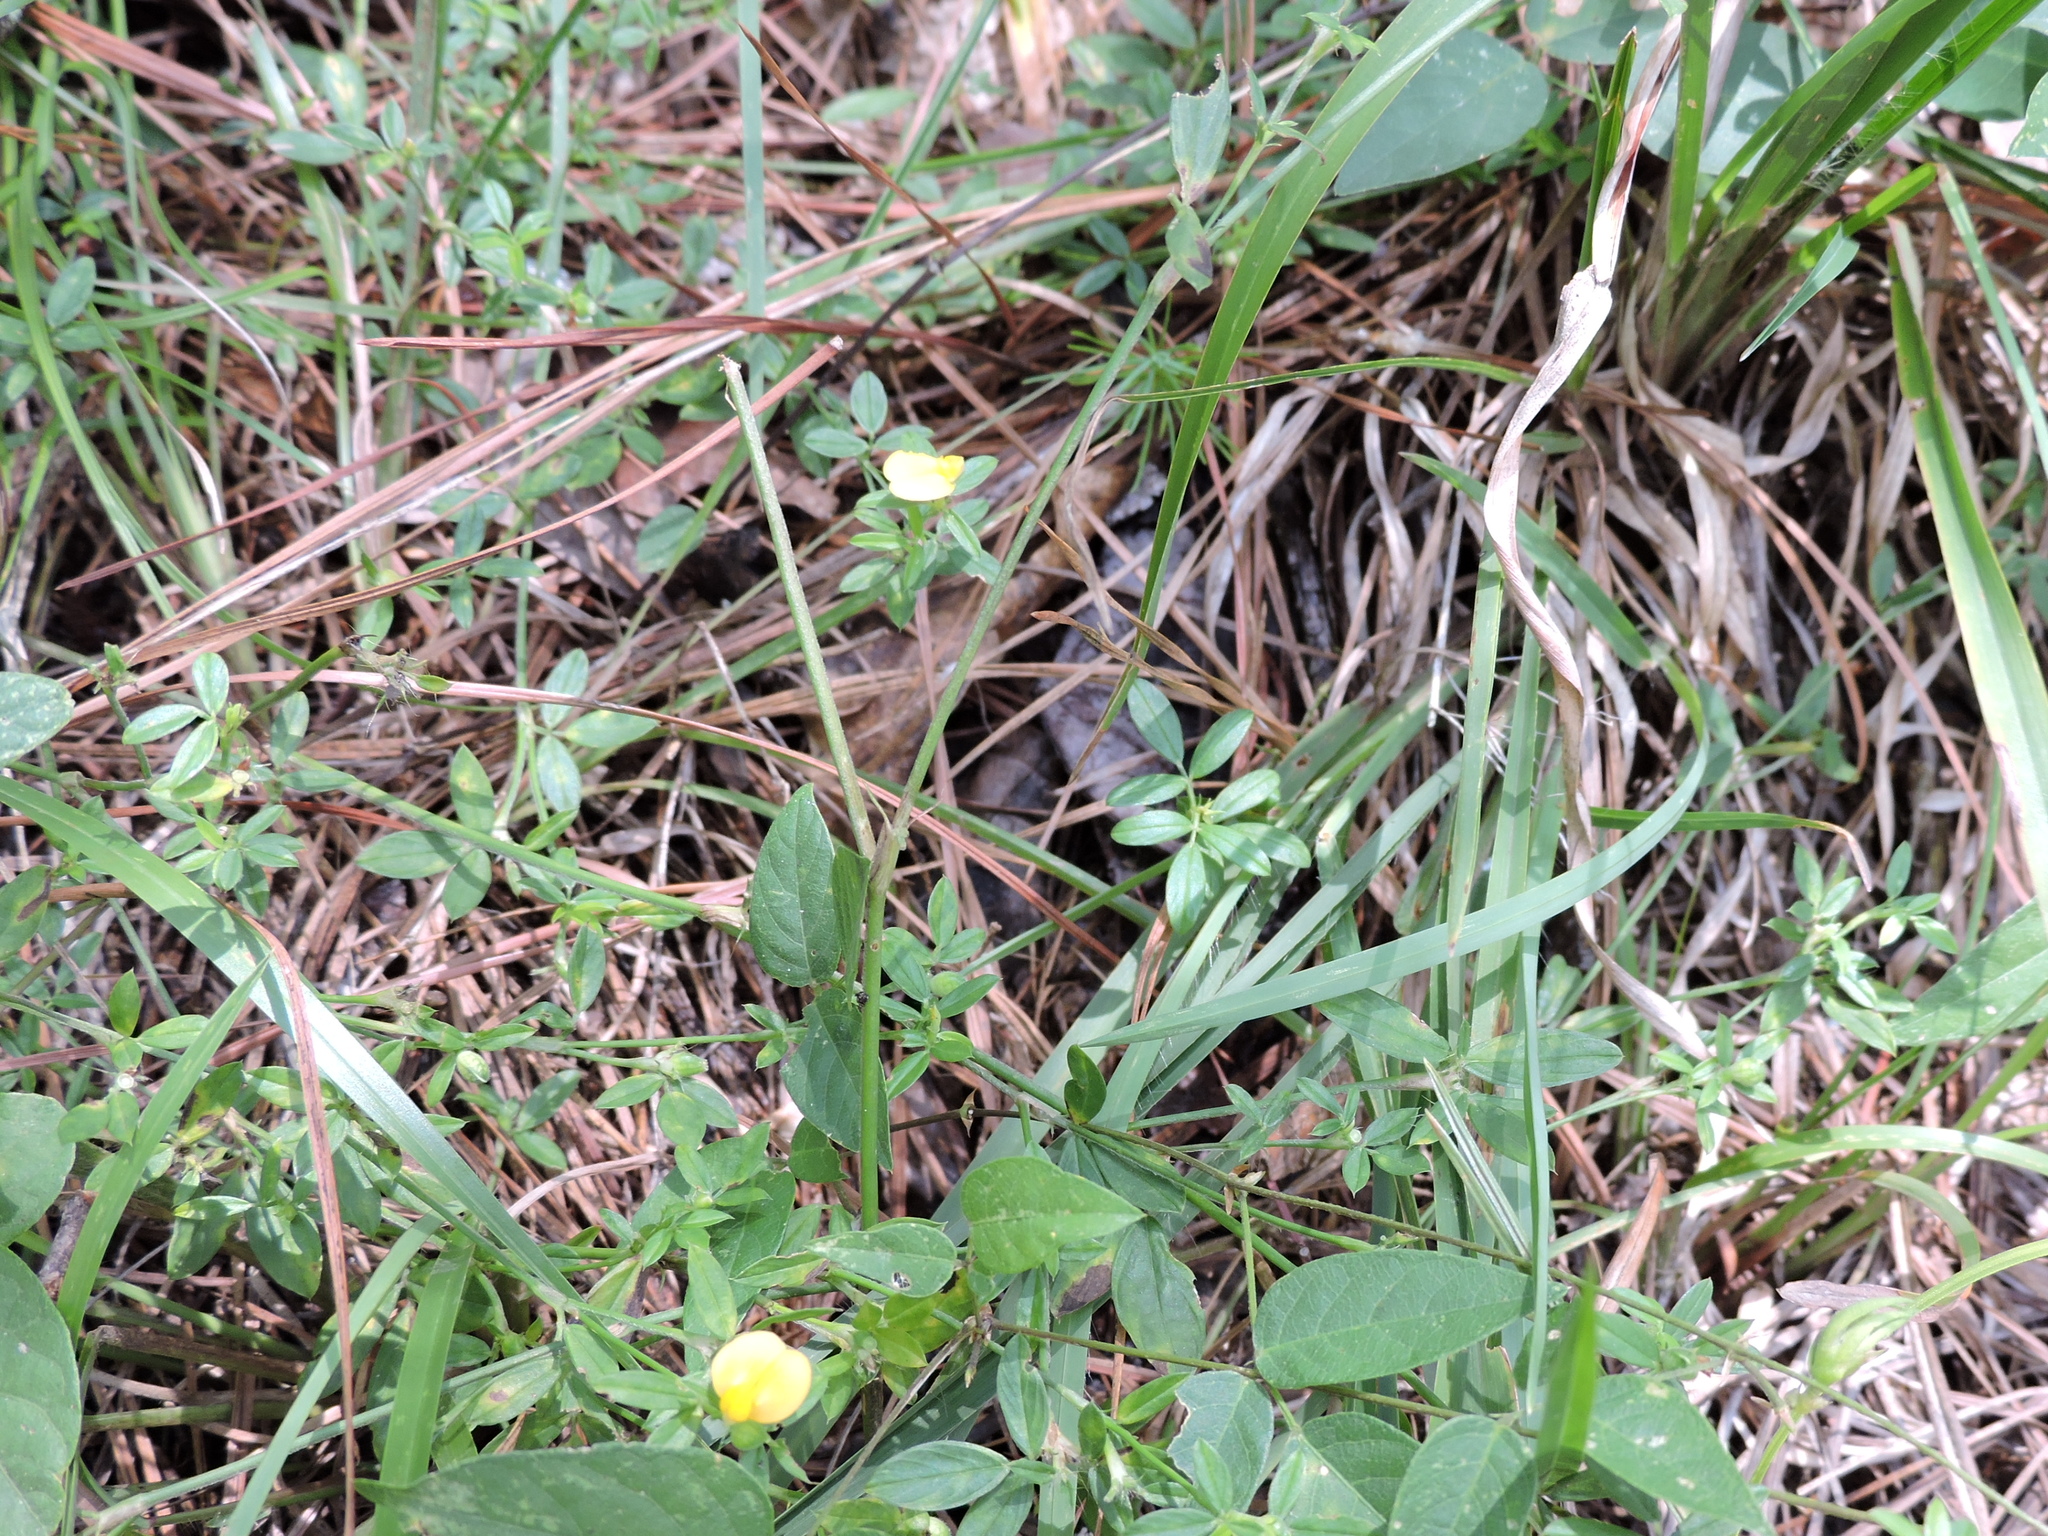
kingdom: Plantae
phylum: Tracheophyta
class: Magnoliopsida
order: Fabales
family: Fabaceae
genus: Stylosanthes
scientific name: Stylosanthes biflora
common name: Two-flower pencil-flower
